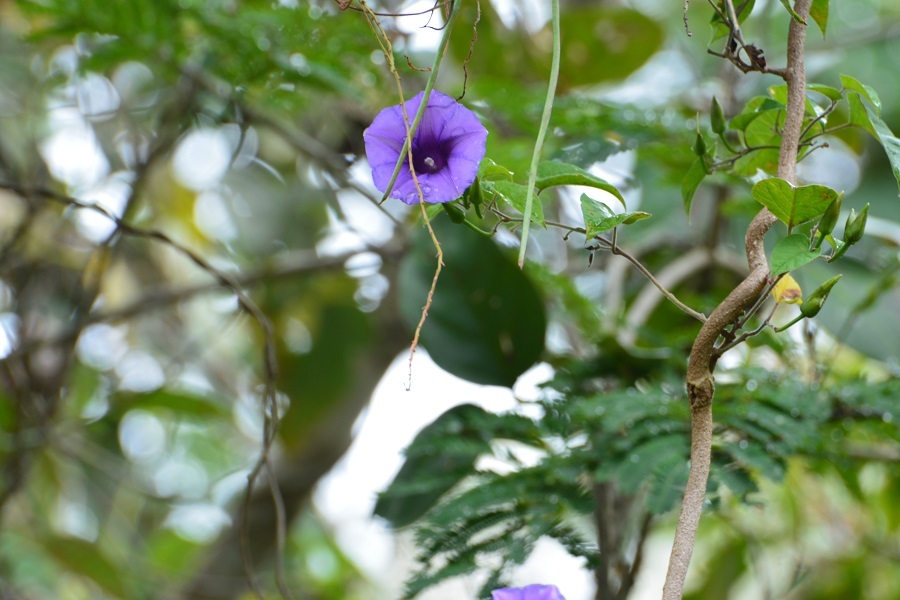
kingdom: Plantae
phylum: Tracheophyta
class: Magnoliopsida
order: Solanales
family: Convolvulaceae
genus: Ipomoea
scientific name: Ipomoea lindenii
